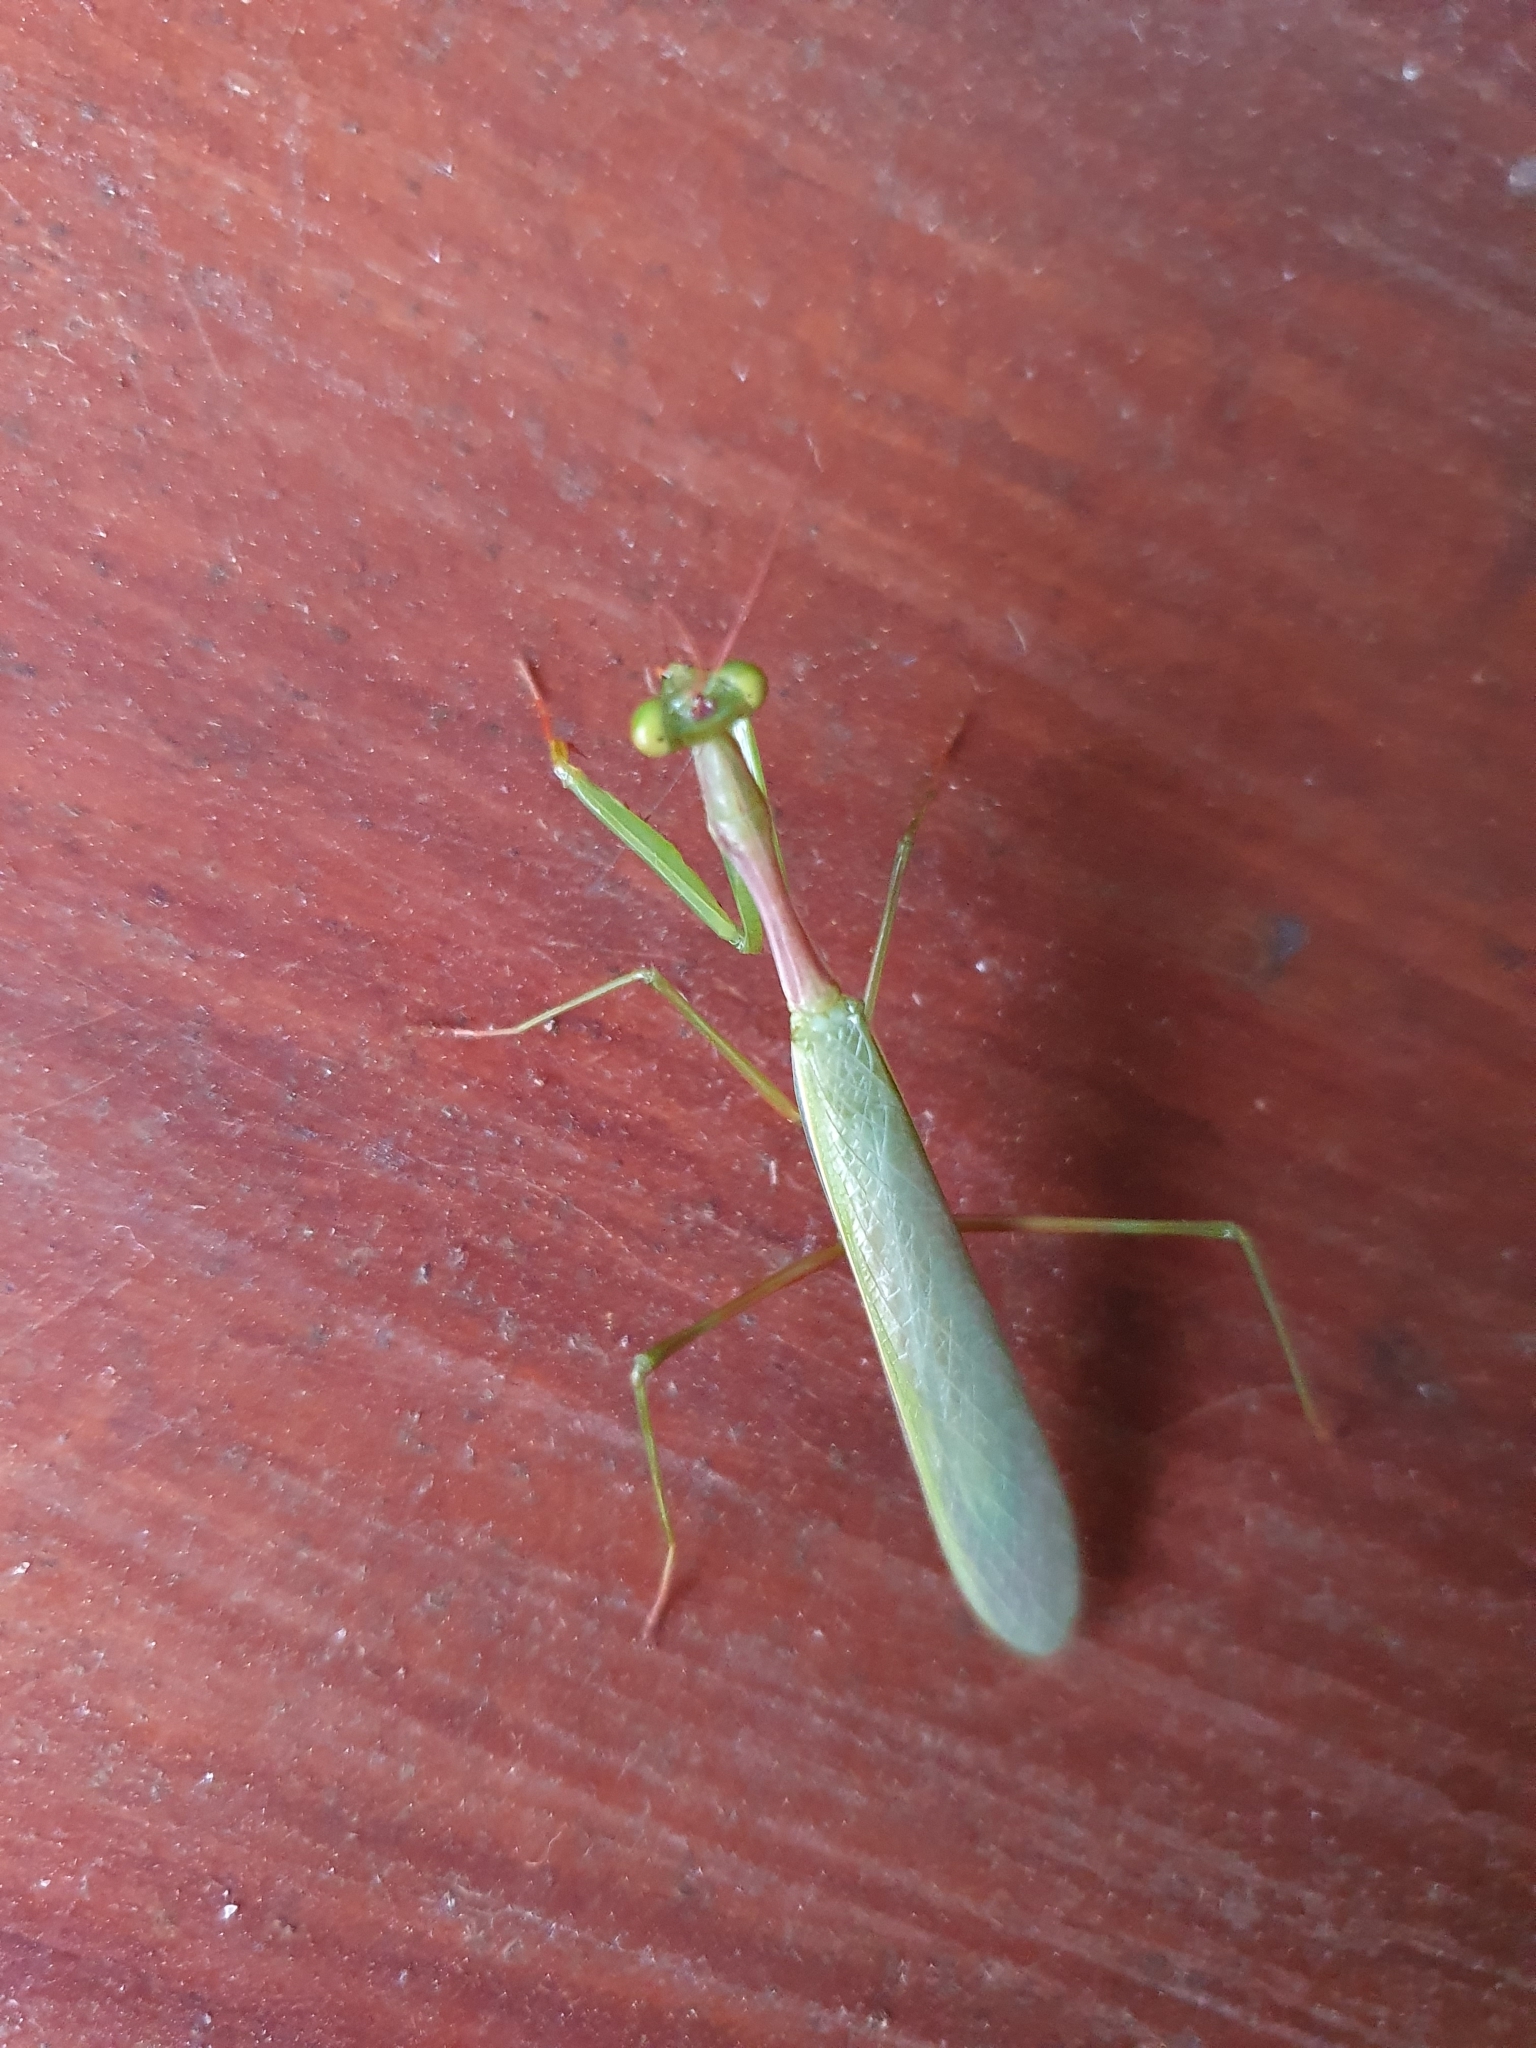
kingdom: Animalia
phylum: Arthropoda
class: Insecta
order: Mantodea
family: Miomantidae
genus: Miomantis
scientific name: Miomantis caffra
